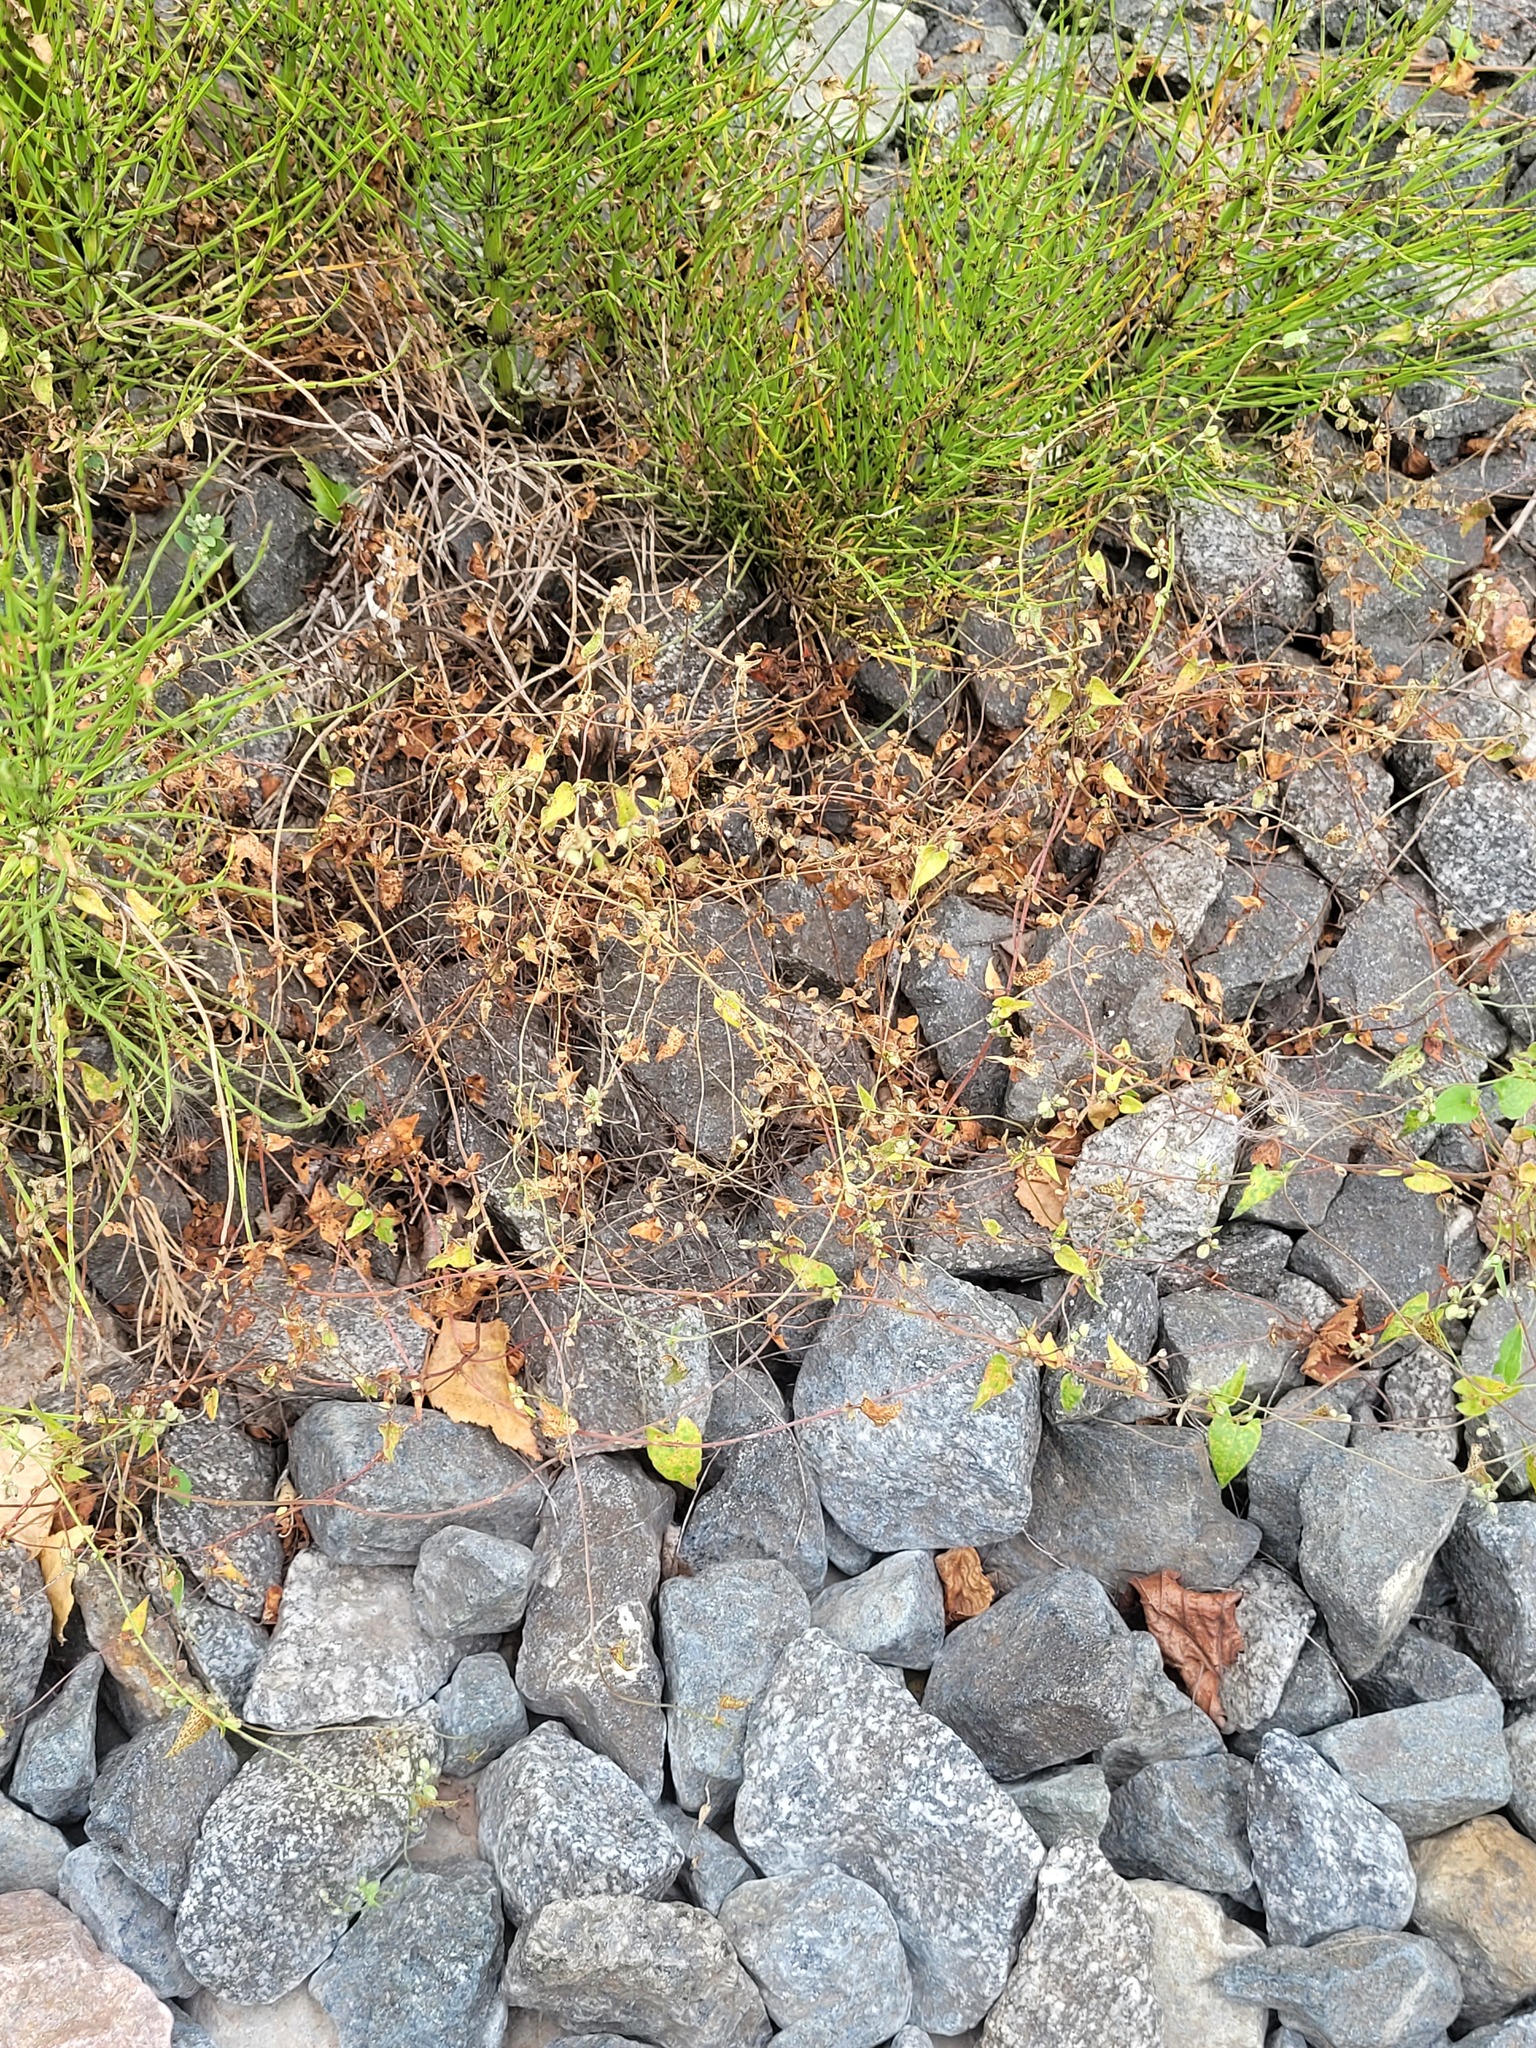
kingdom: Plantae
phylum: Tracheophyta
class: Magnoliopsida
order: Caryophyllales
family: Polygonaceae
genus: Fallopia
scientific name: Fallopia convolvulus
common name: Black bindweed
